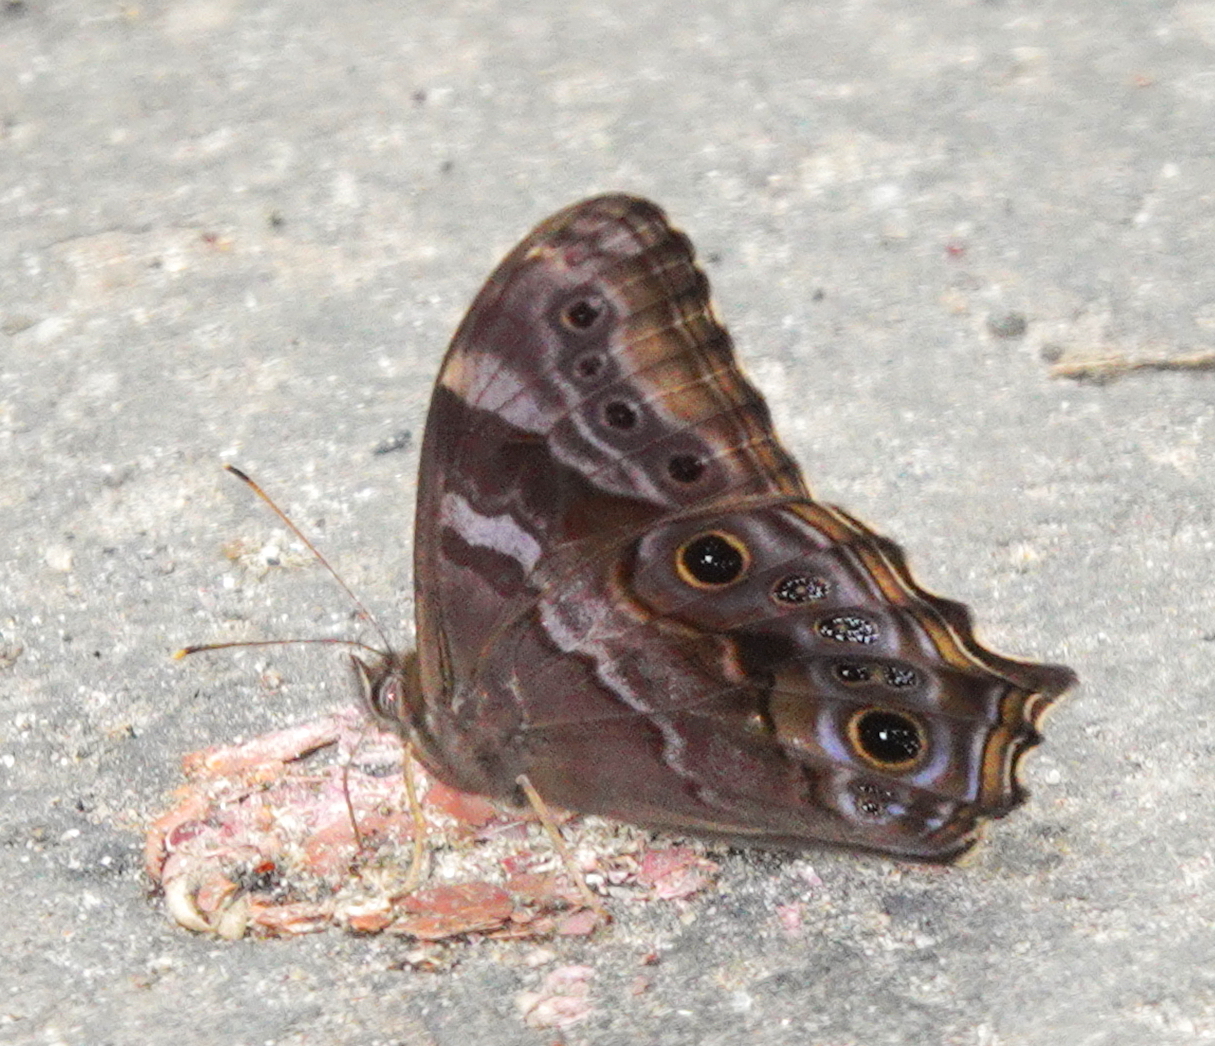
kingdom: Animalia
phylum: Arthropoda
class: Insecta
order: Lepidoptera
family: Nymphalidae
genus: Lethe
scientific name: Lethe drypetis
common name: Tamil treebrown
